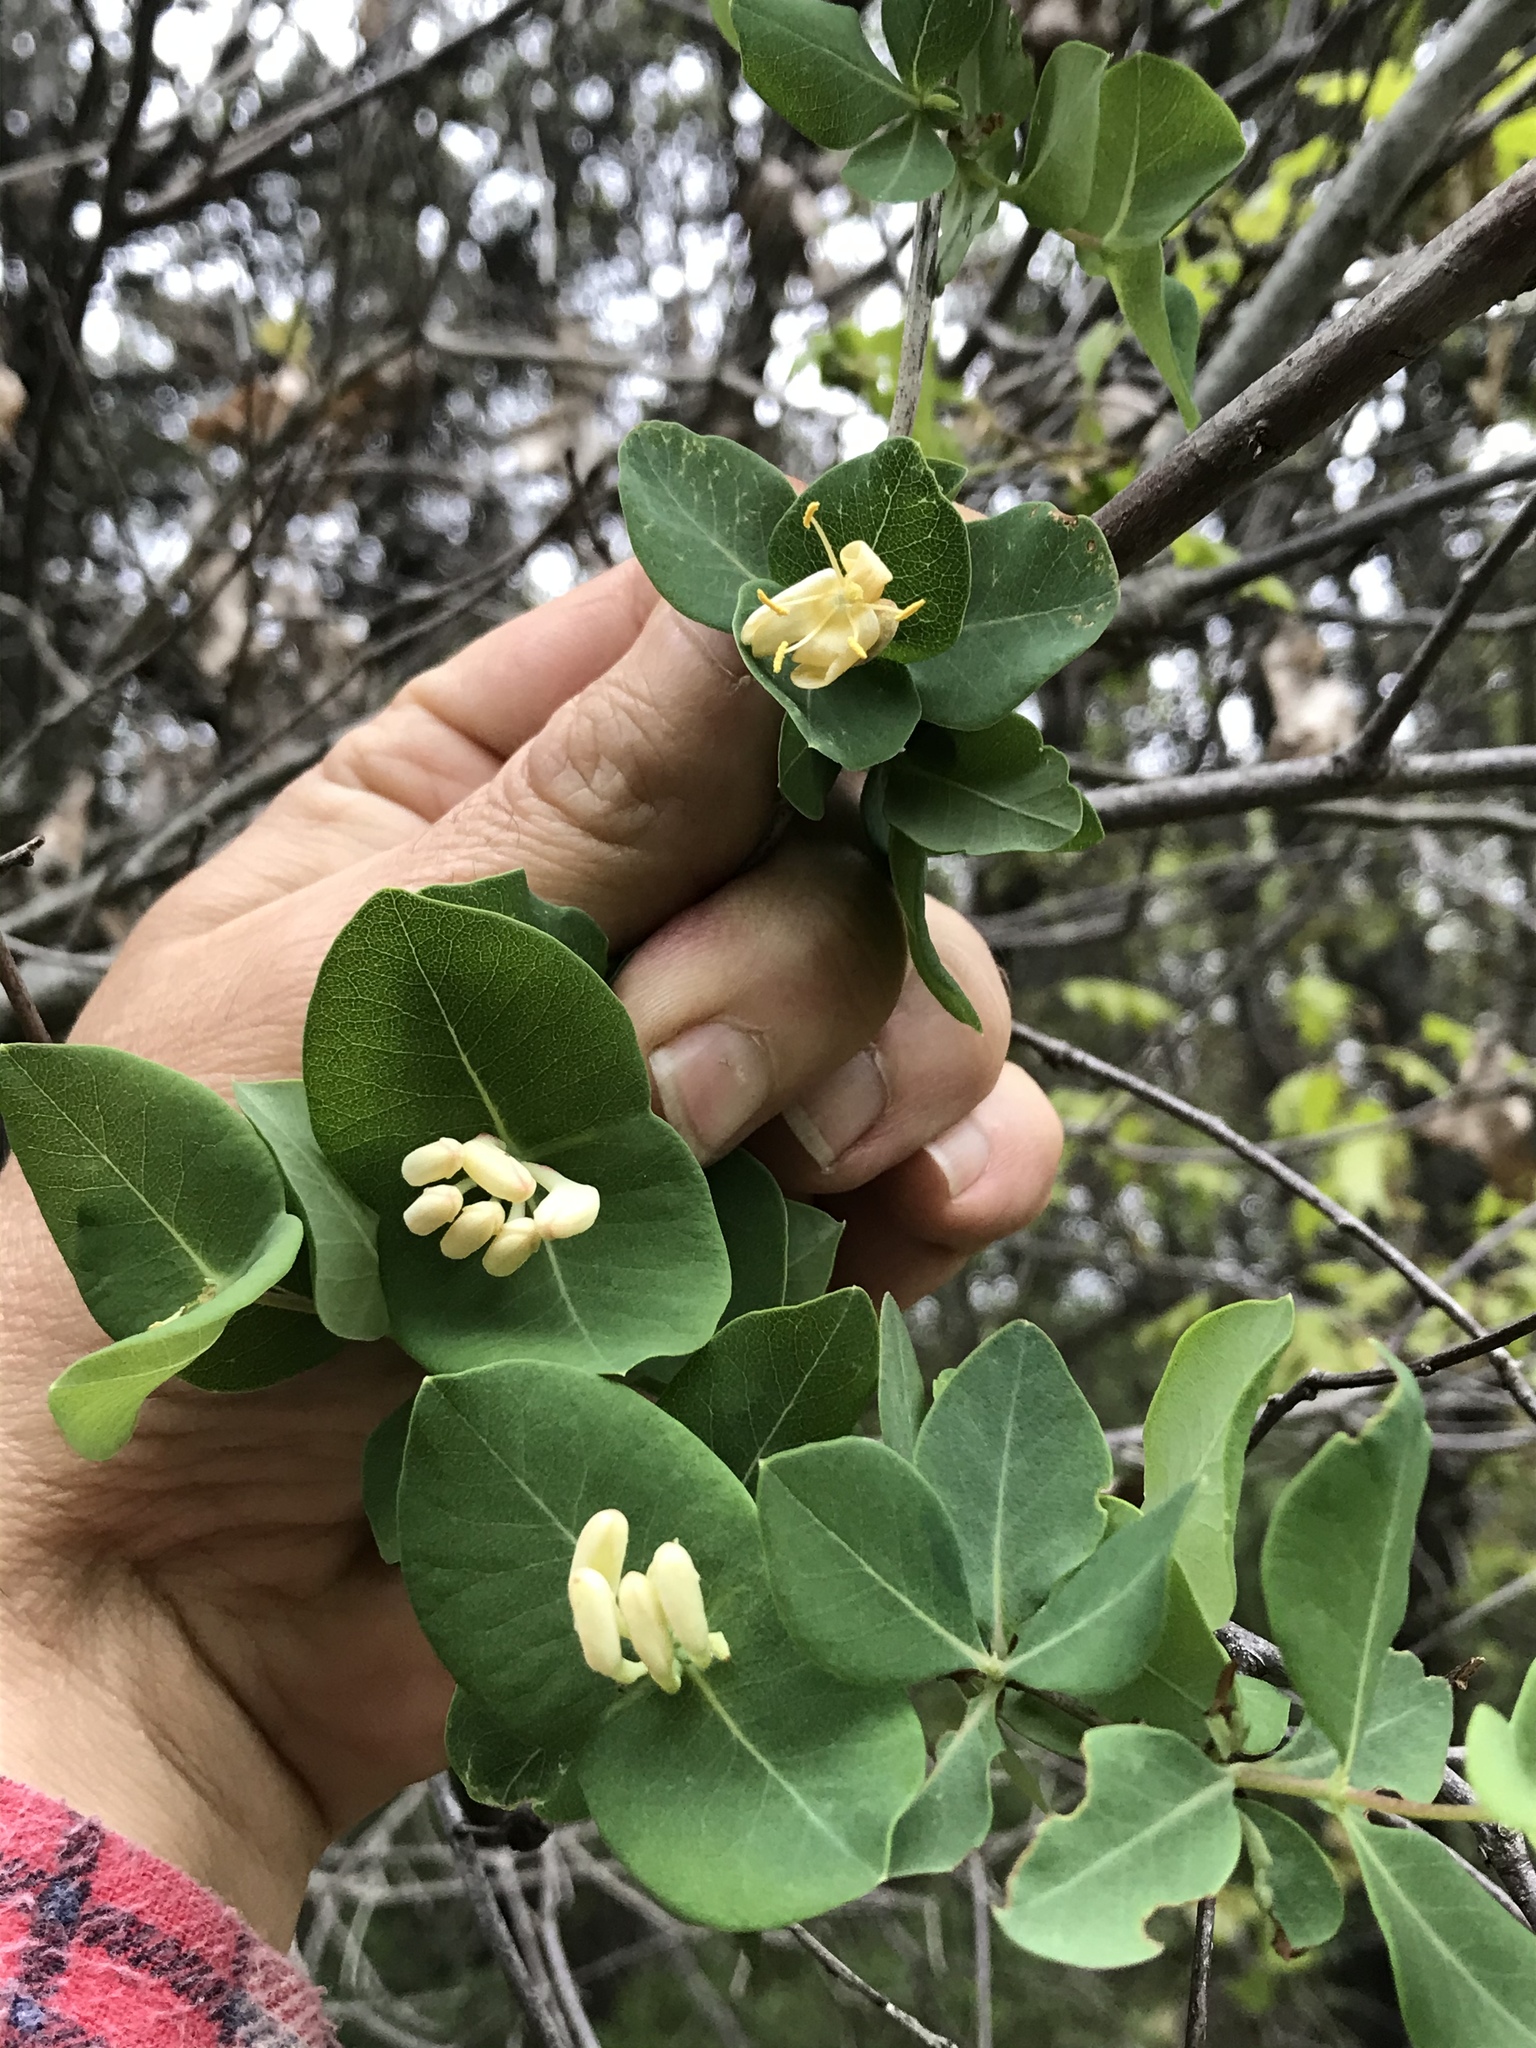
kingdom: Plantae
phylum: Tracheophyta
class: Magnoliopsida
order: Dipsacales
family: Caprifoliaceae
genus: Lonicera
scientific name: Lonicera albiflora
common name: White honeysuckle
